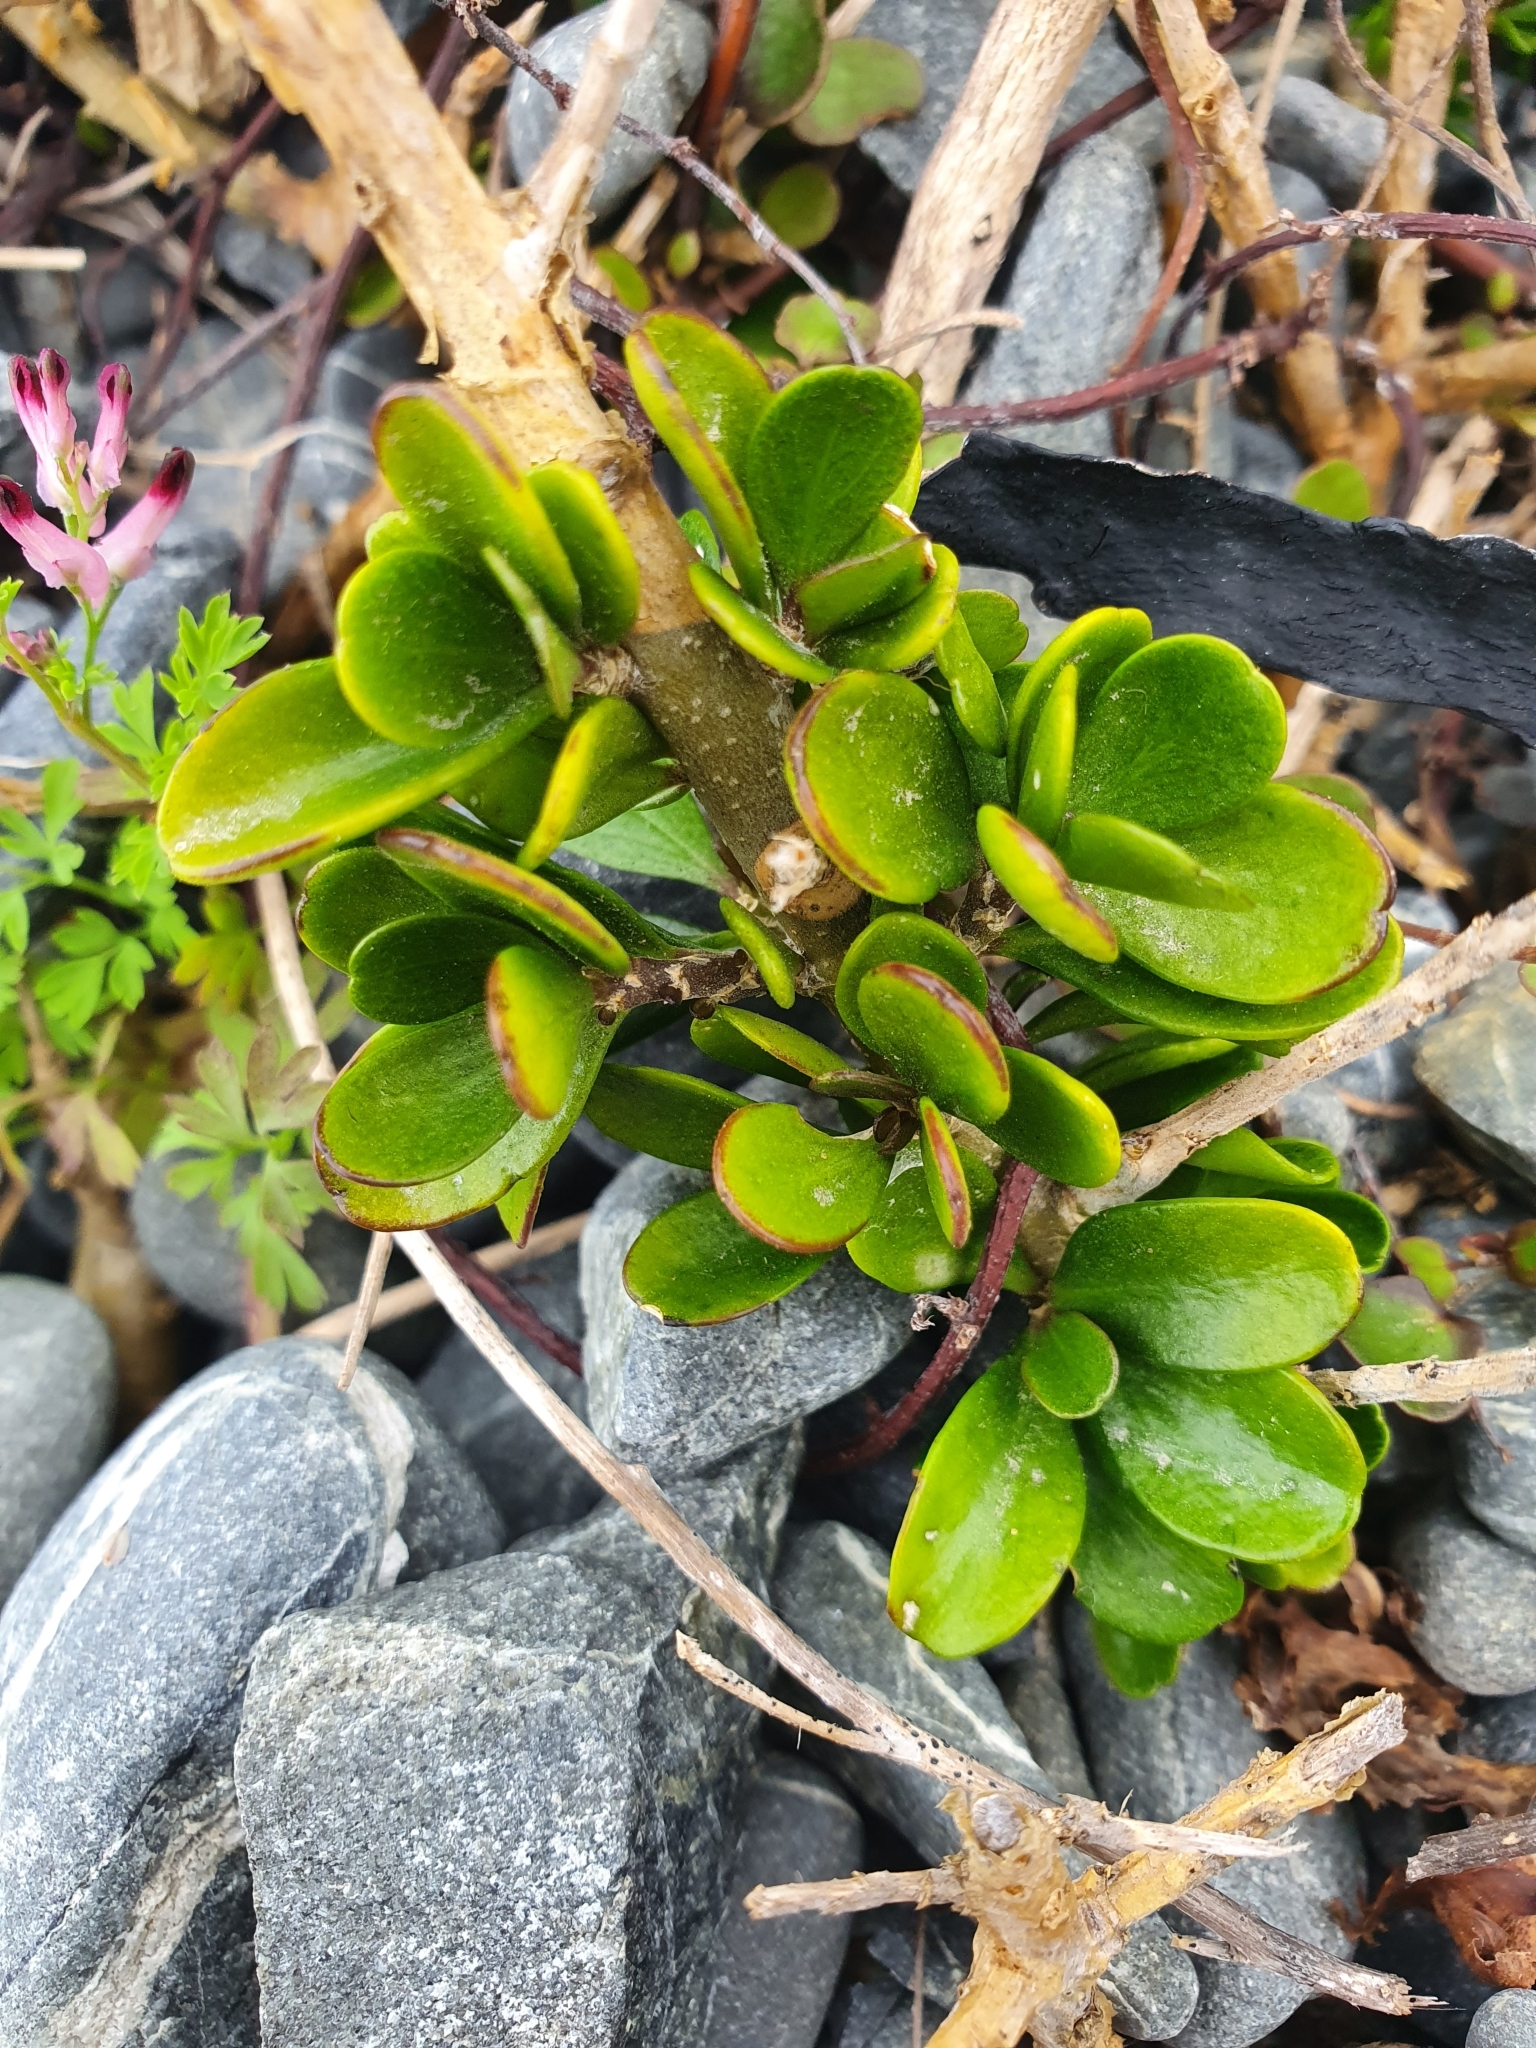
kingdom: Plantae
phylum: Tracheophyta
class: Magnoliopsida
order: Malpighiales
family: Violaceae
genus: Melicytus
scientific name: Melicytus crassifolius
